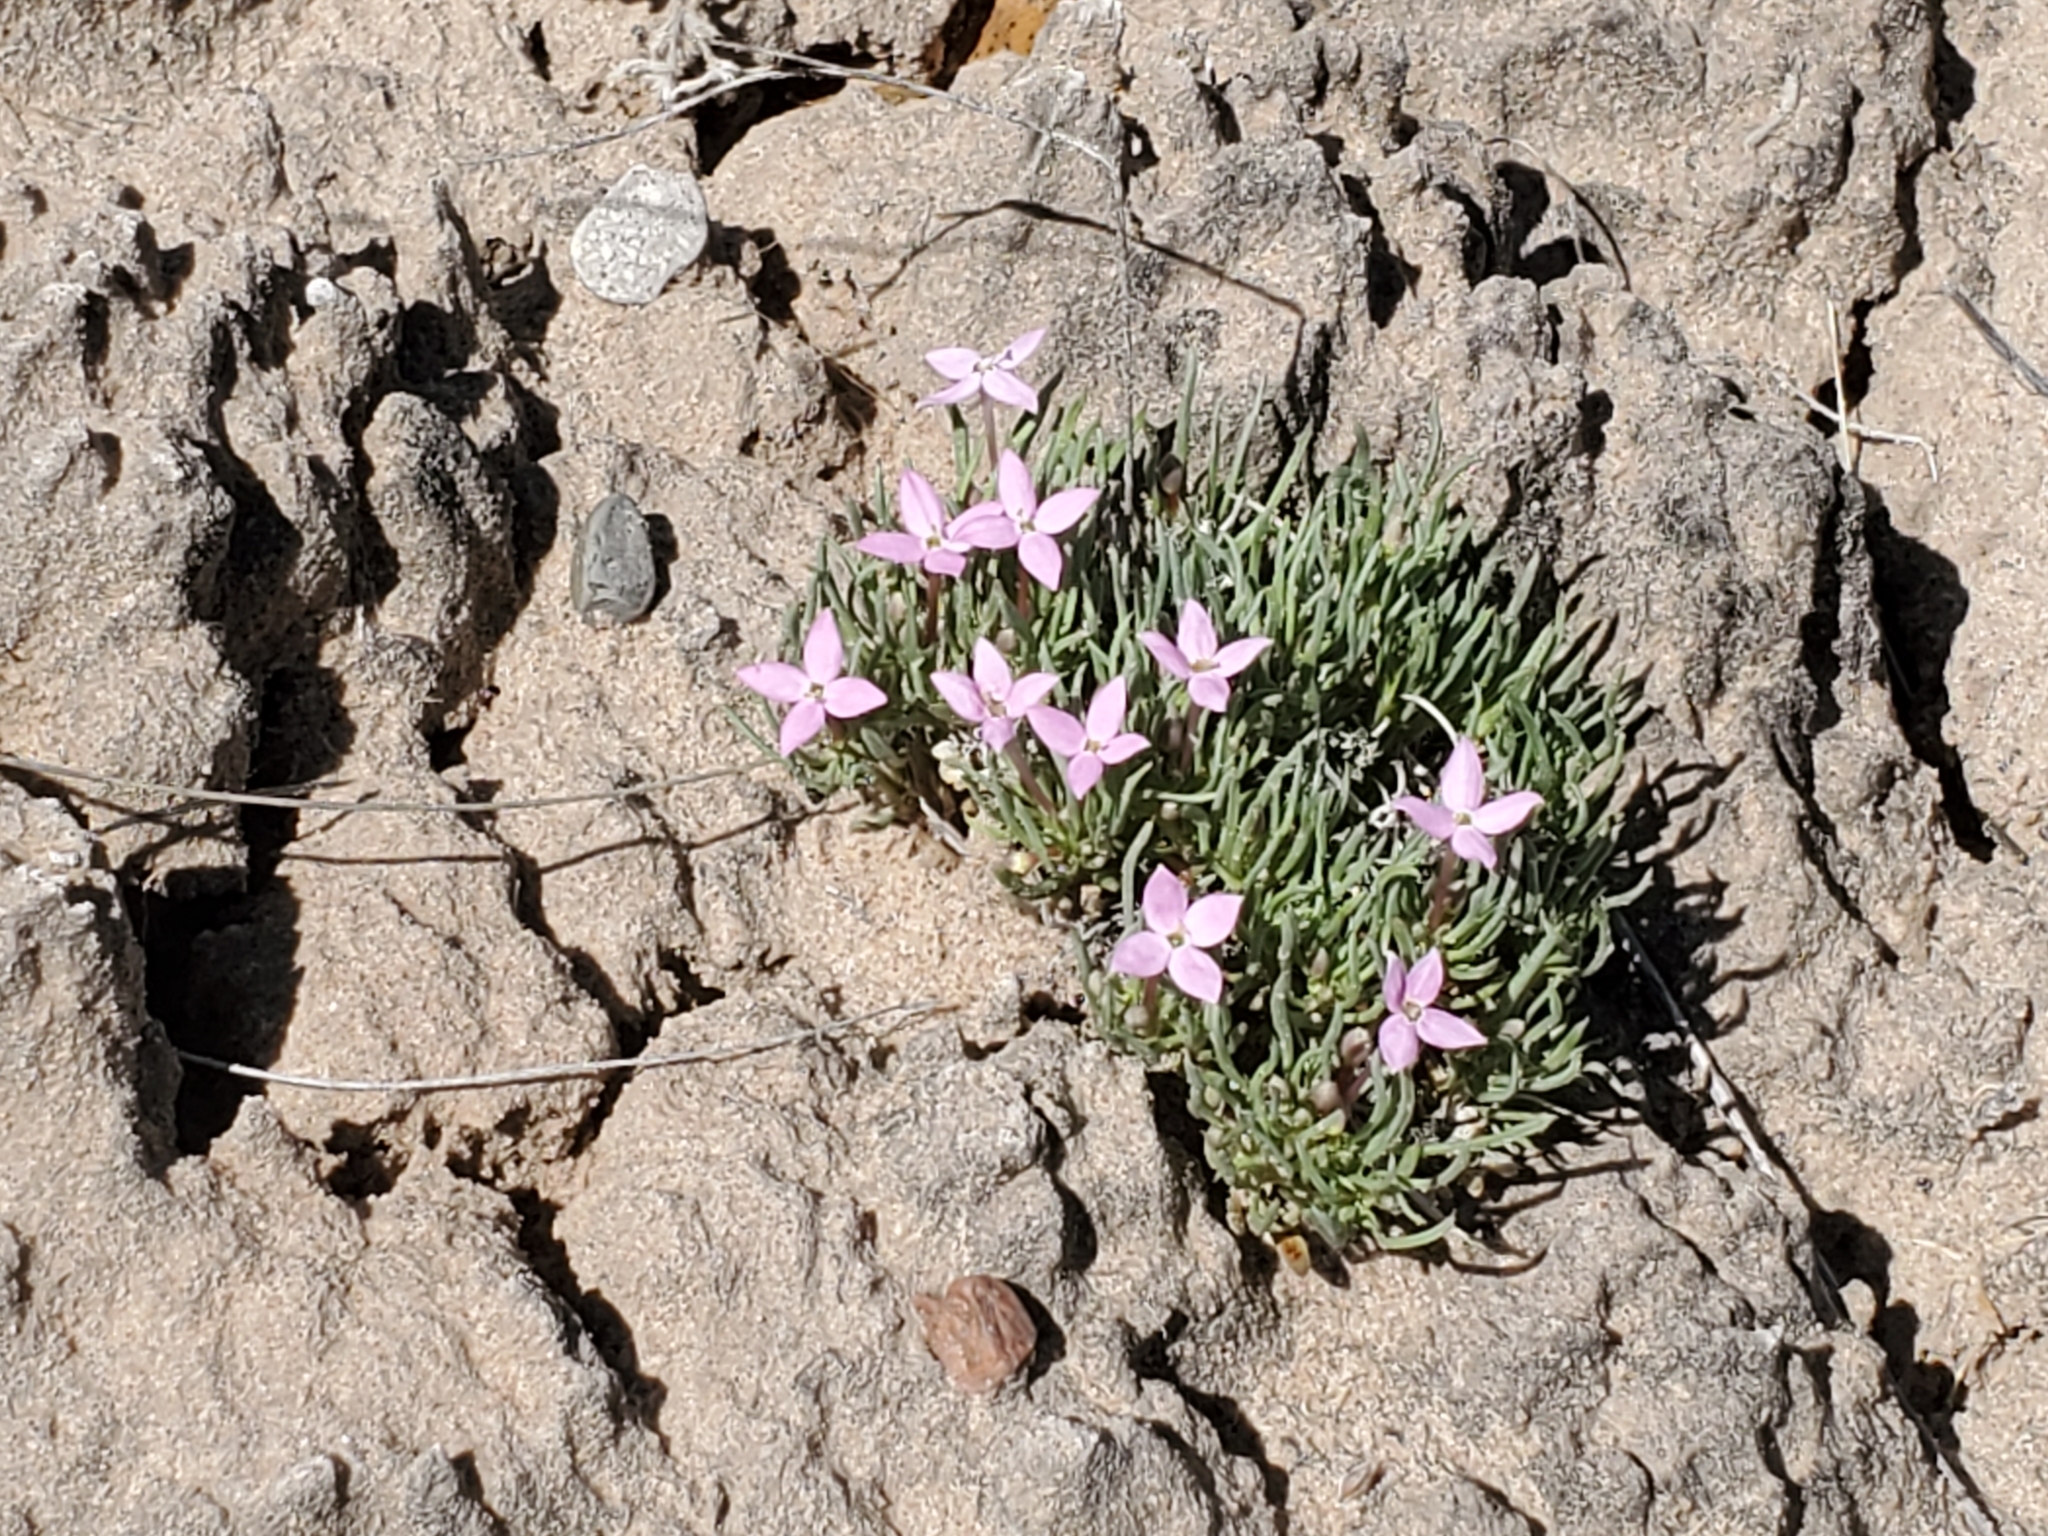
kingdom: Plantae
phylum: Tracheophyta
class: Magnoliopsida
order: Gentianales
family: Rubiaceae
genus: Houstonia
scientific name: Houstonia rubra
